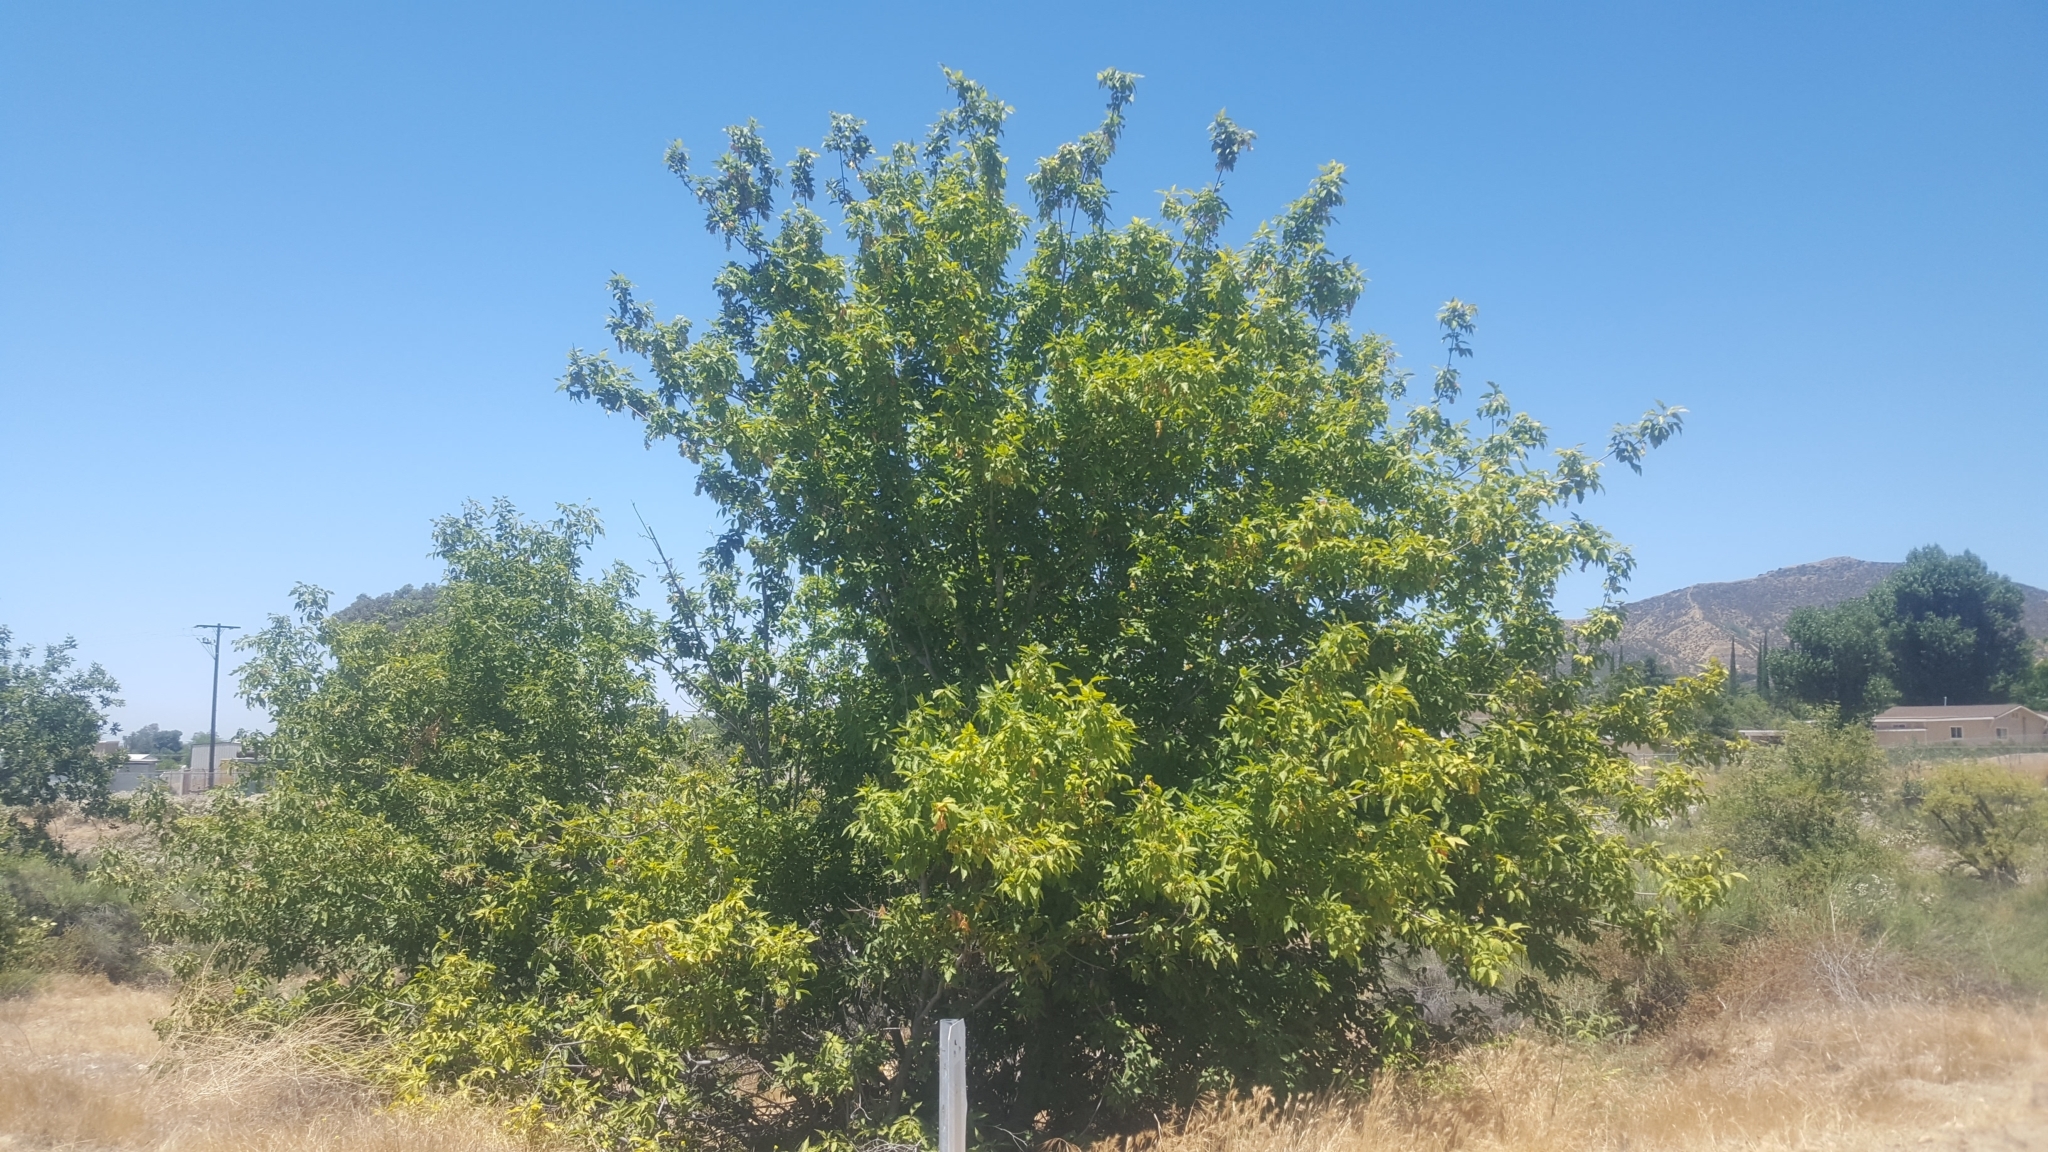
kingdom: Plantae
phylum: Tracheophyta
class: Magnoliopsida
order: Sapindales
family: Sapindaceae
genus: Acer
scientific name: Acer negundo
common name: Ashleaf maple
